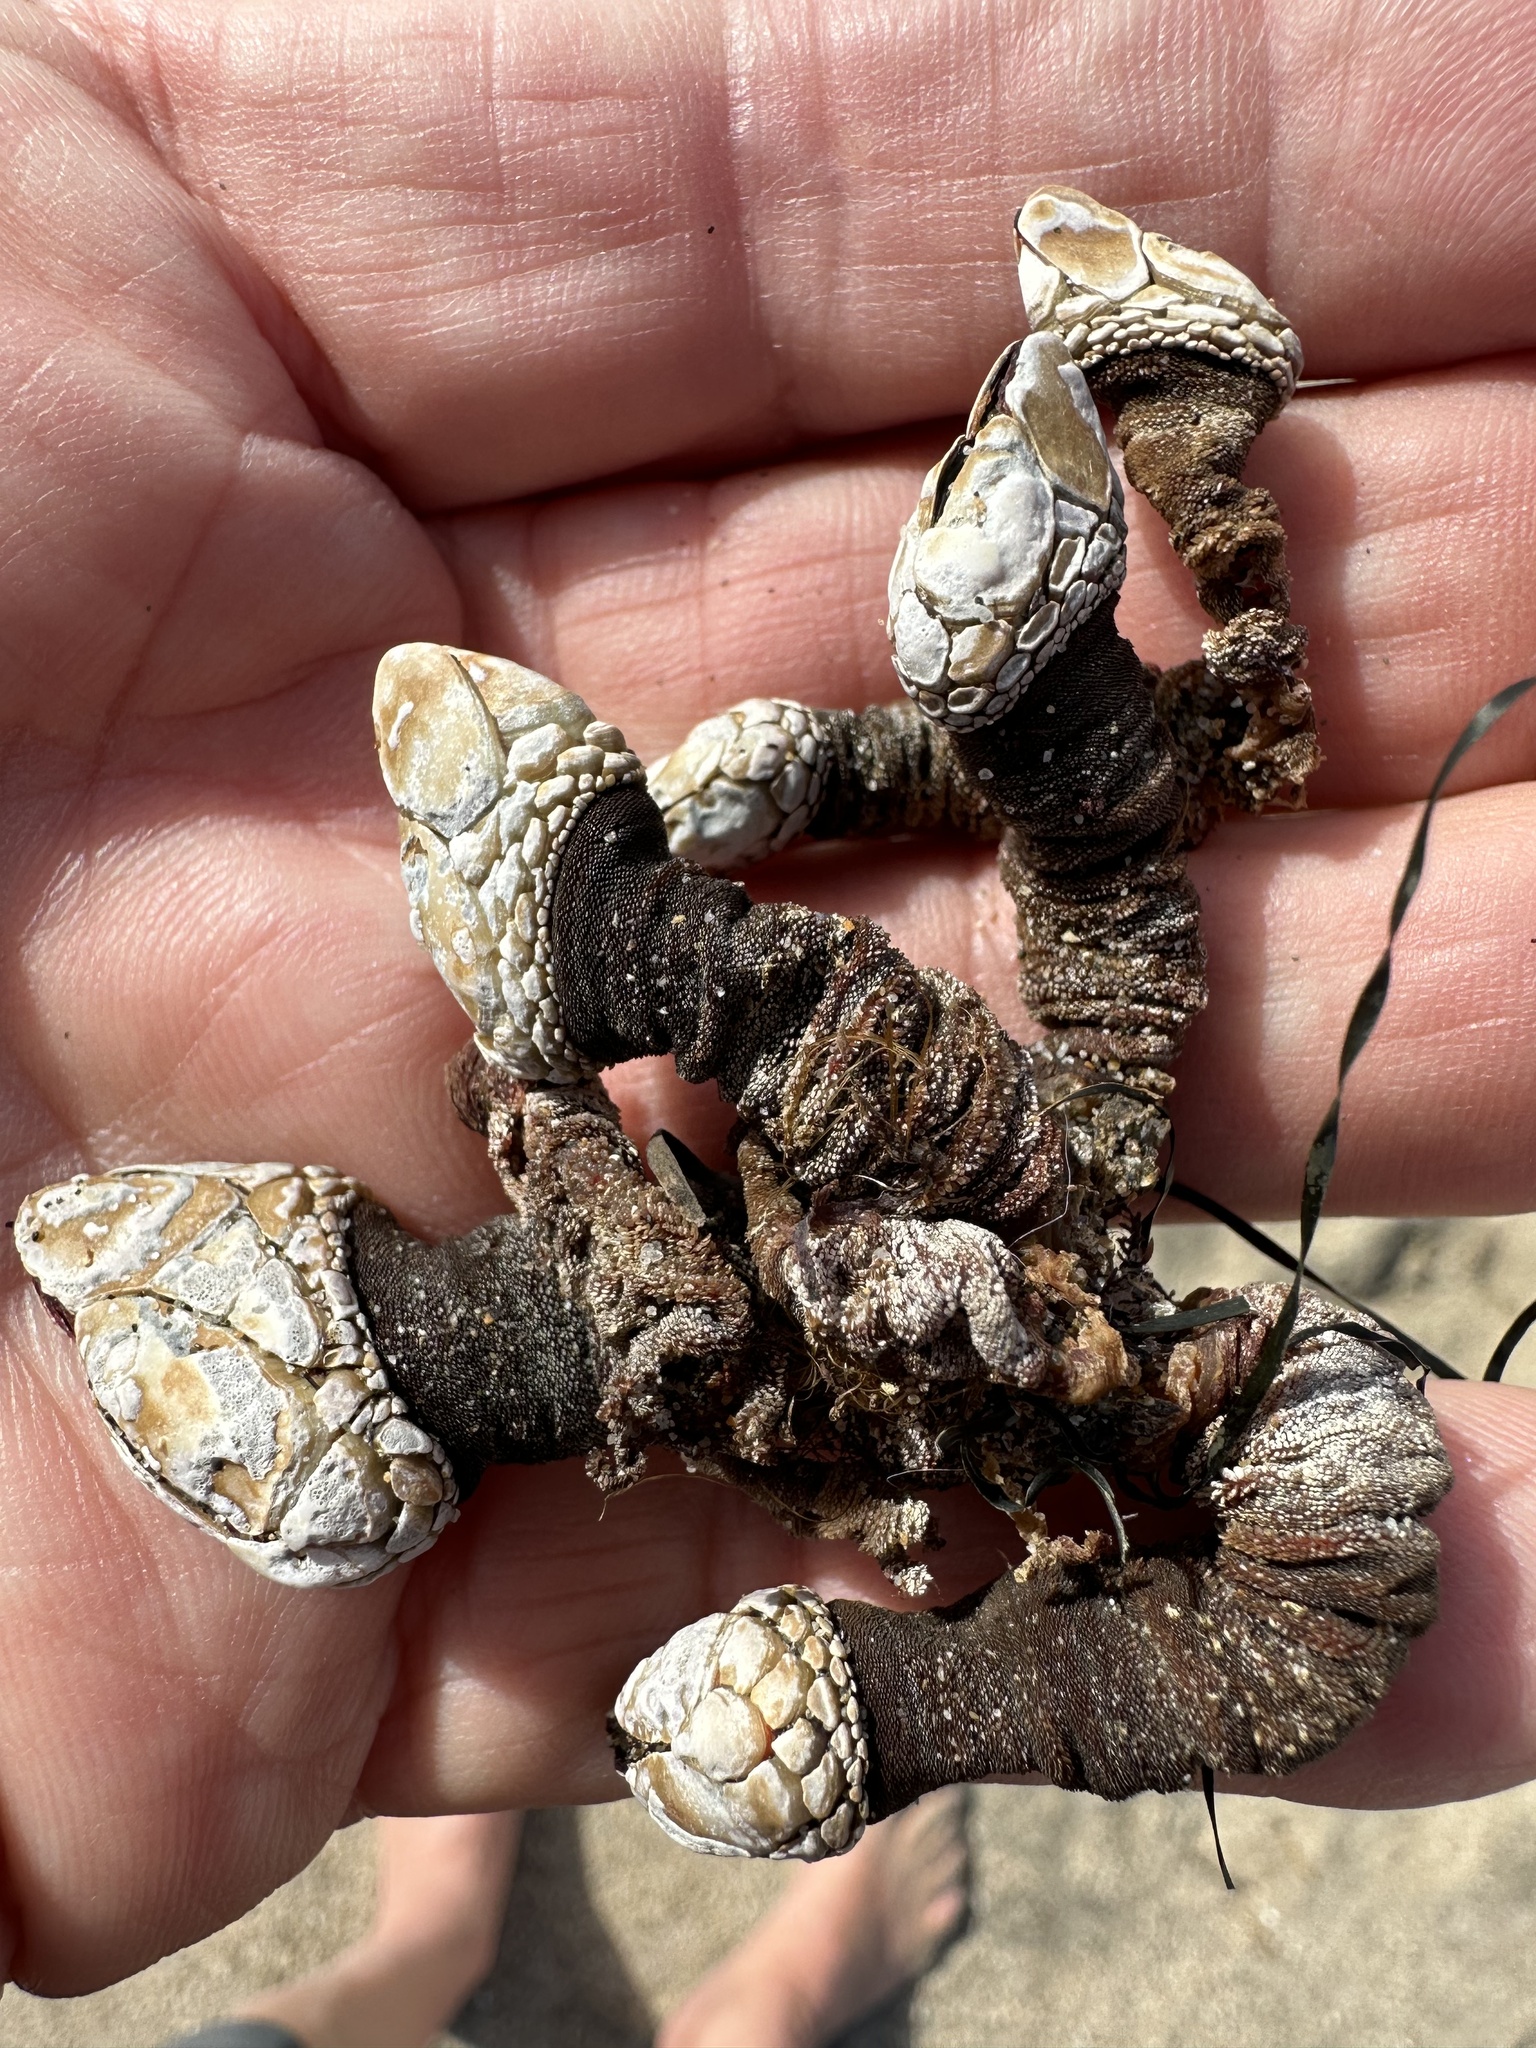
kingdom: Animalia
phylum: Arthropoda
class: Maxillopoda
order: Pedunculata
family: Pollicipedidae
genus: Pollicipes
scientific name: Pollicipes polymerus
